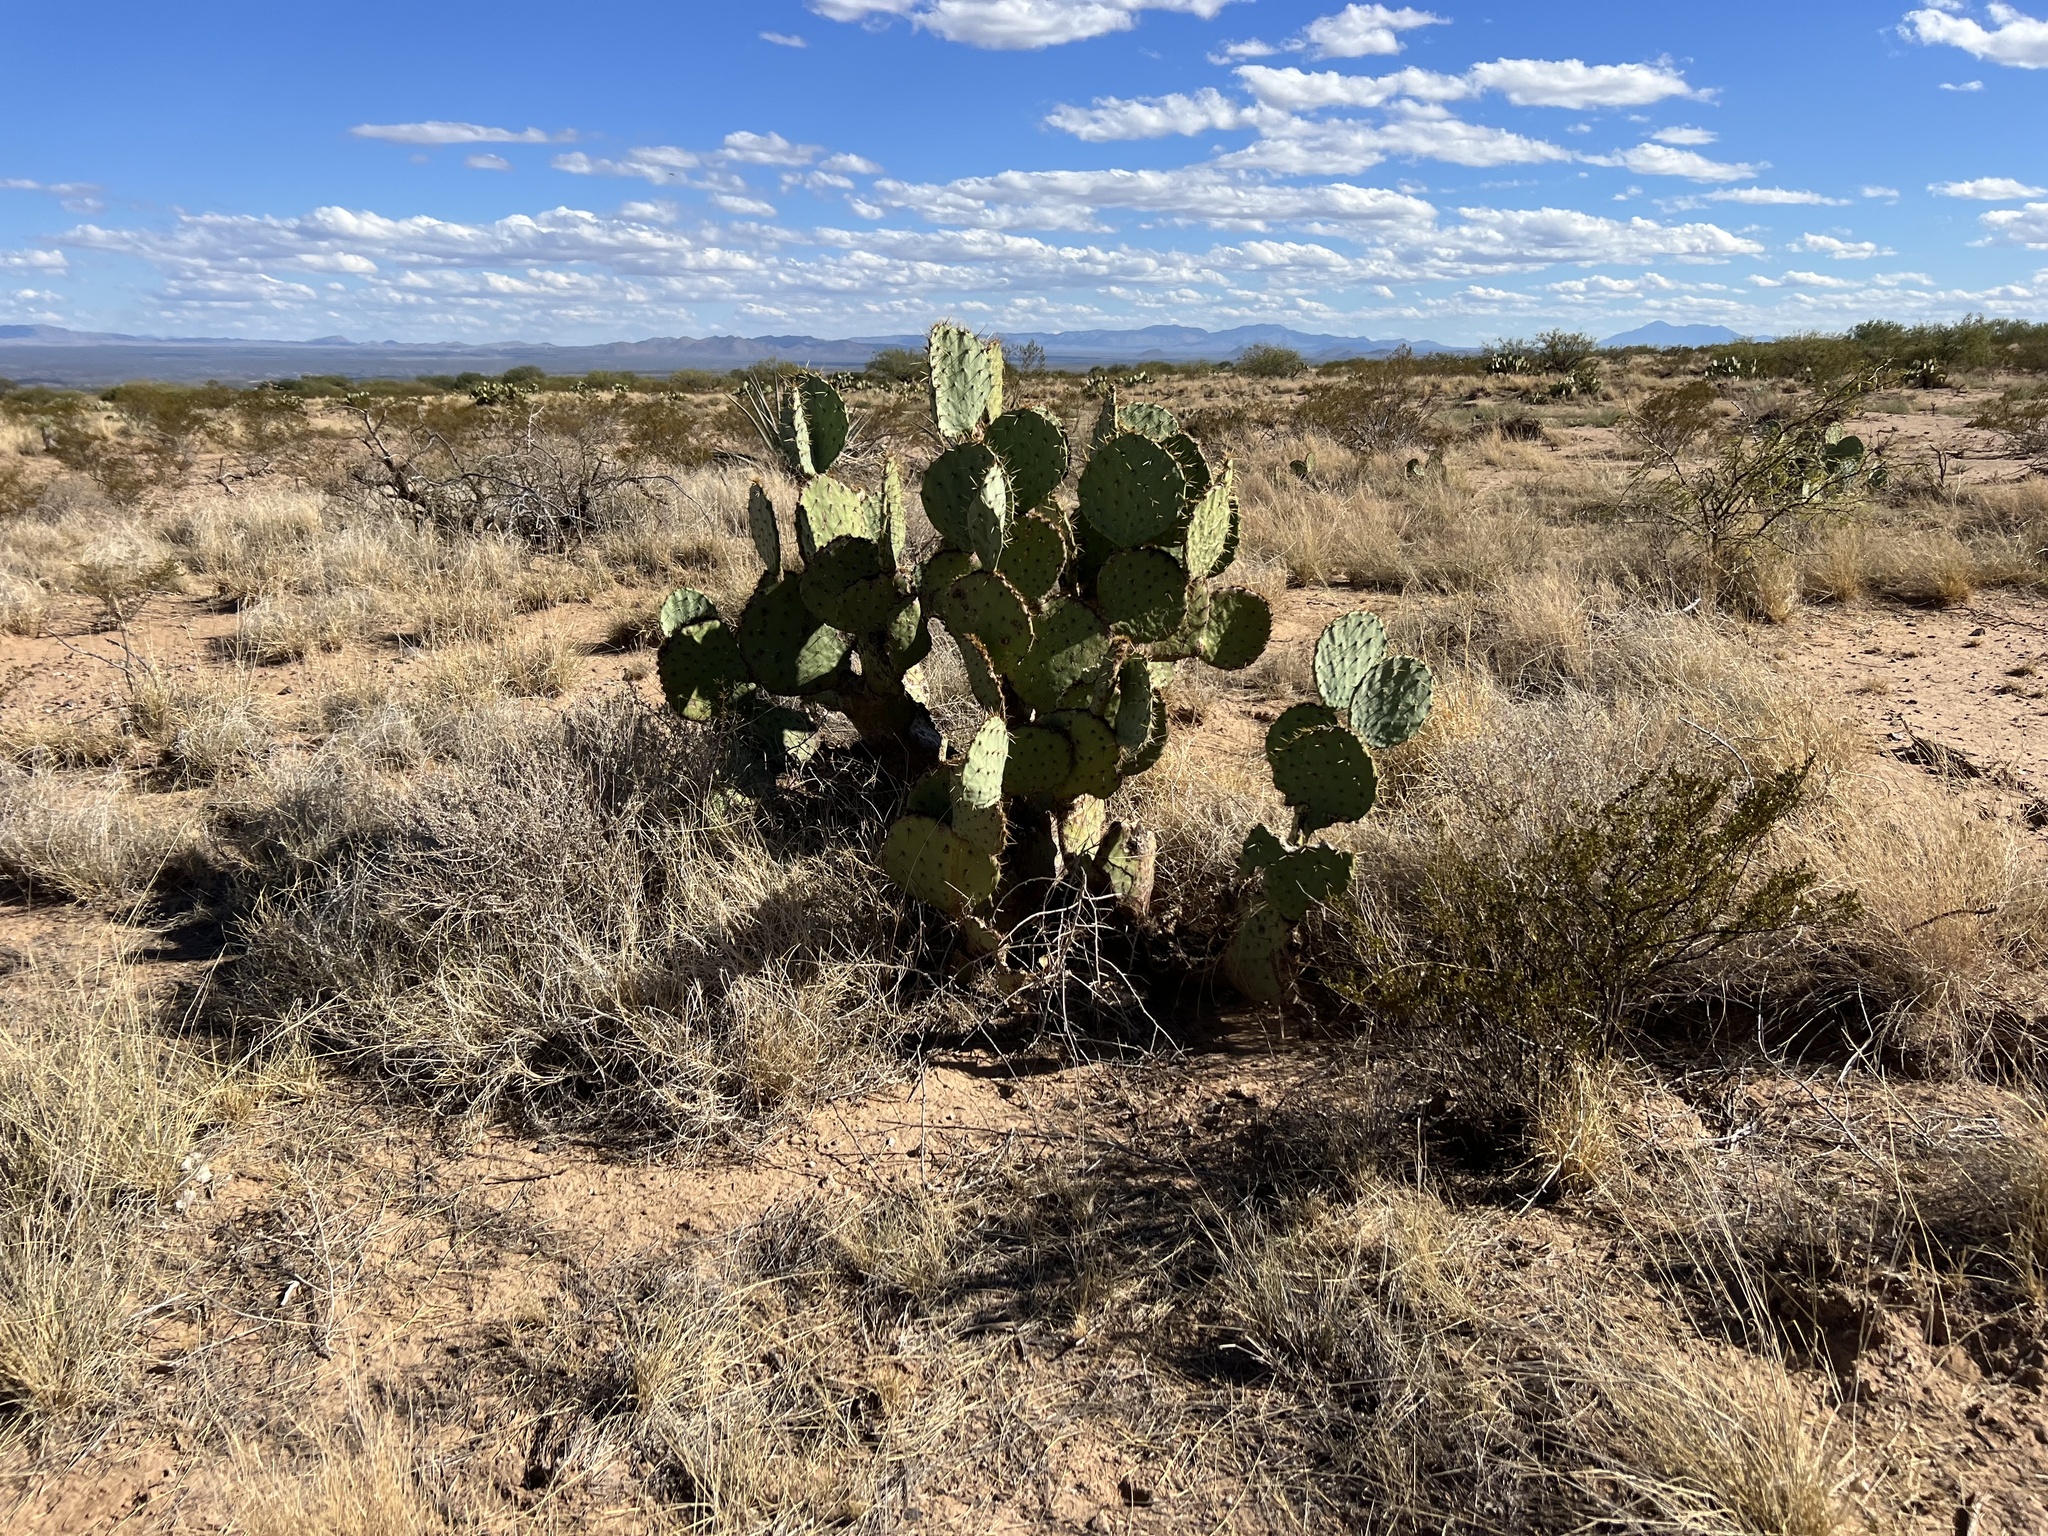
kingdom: Plantae
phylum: Tracheophyta
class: Magnoliopsida
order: Caryophyllales
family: Cactaceae
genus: Opuntia
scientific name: Opuntia engelmannii
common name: Cactus-apple
